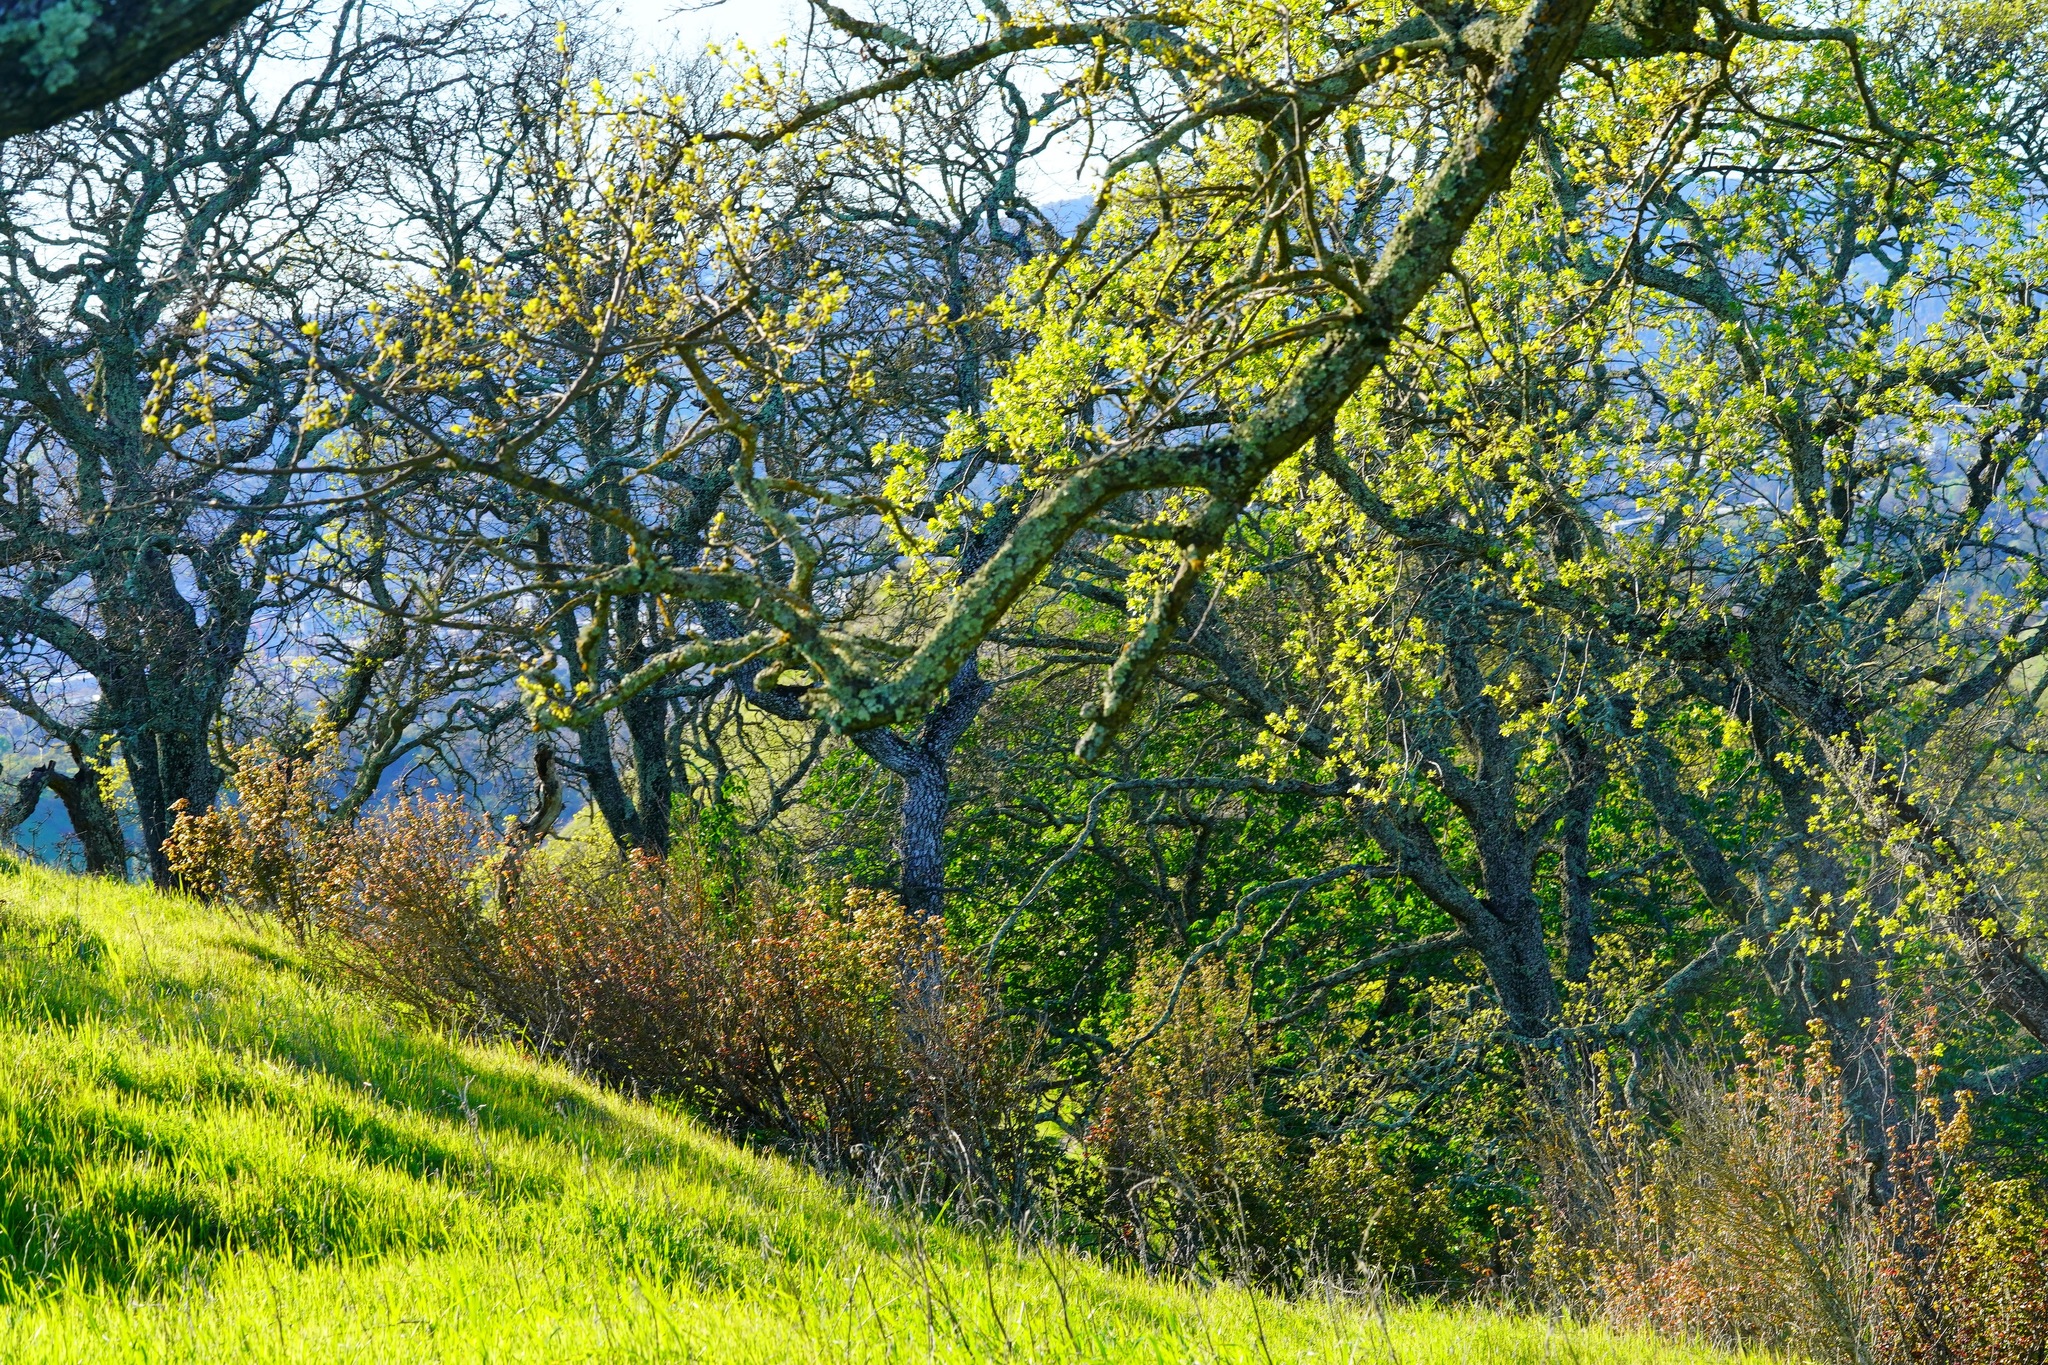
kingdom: Plantae
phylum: Tracheophyta
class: Magnoliopsida
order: Sapindales
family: Anacardiaceae
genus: Toxicodendron
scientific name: Toxicodendron diversilobum
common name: Pacific poison-oak
